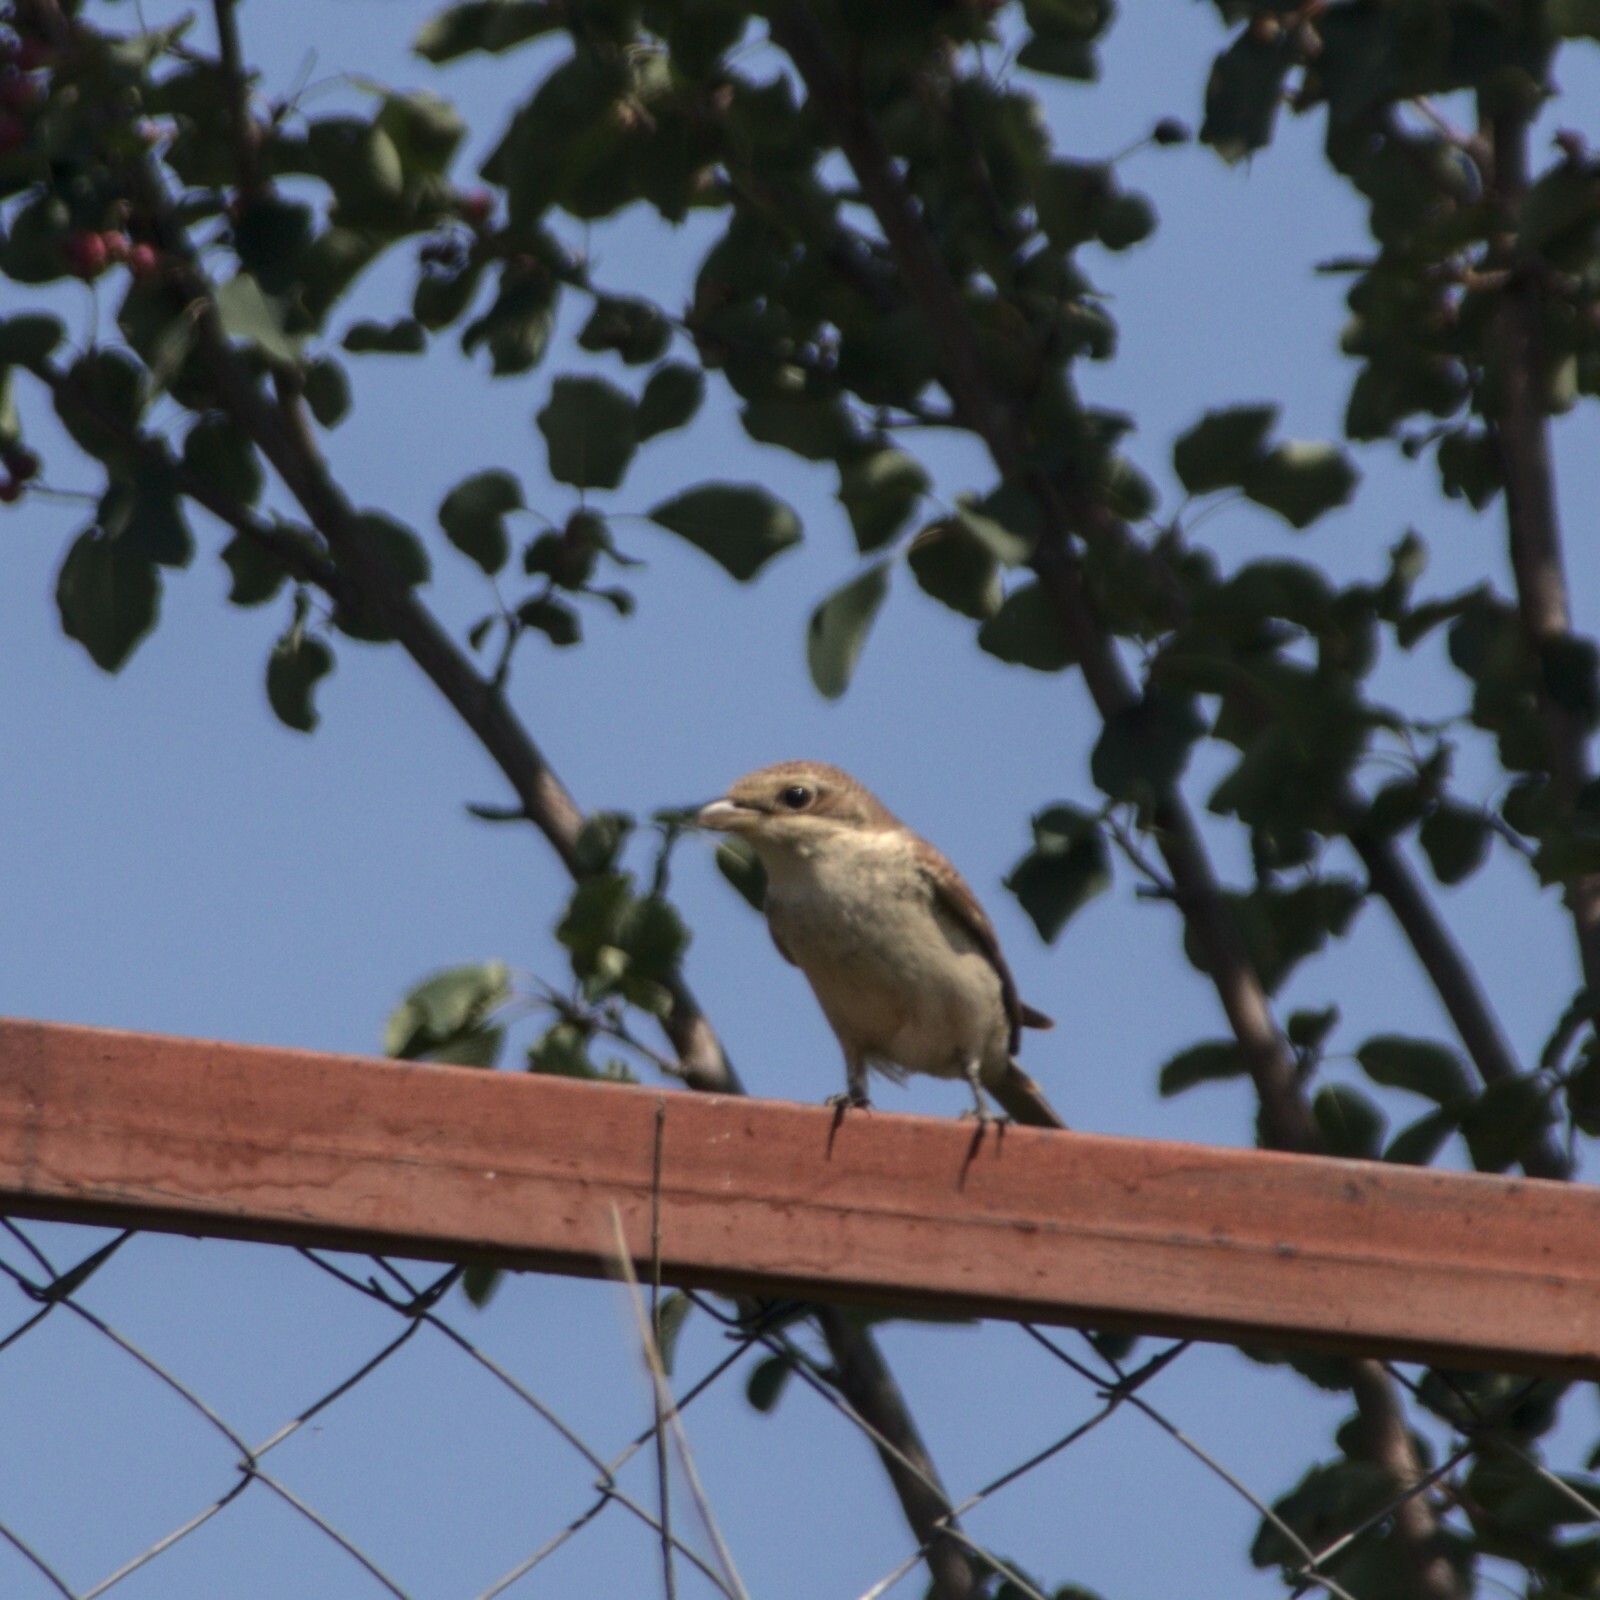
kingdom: Animalia
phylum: Chordata
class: Aves
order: Passeriformes
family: Laniidae
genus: Lanius
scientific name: Lanius collurio
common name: Red-backed shrike
